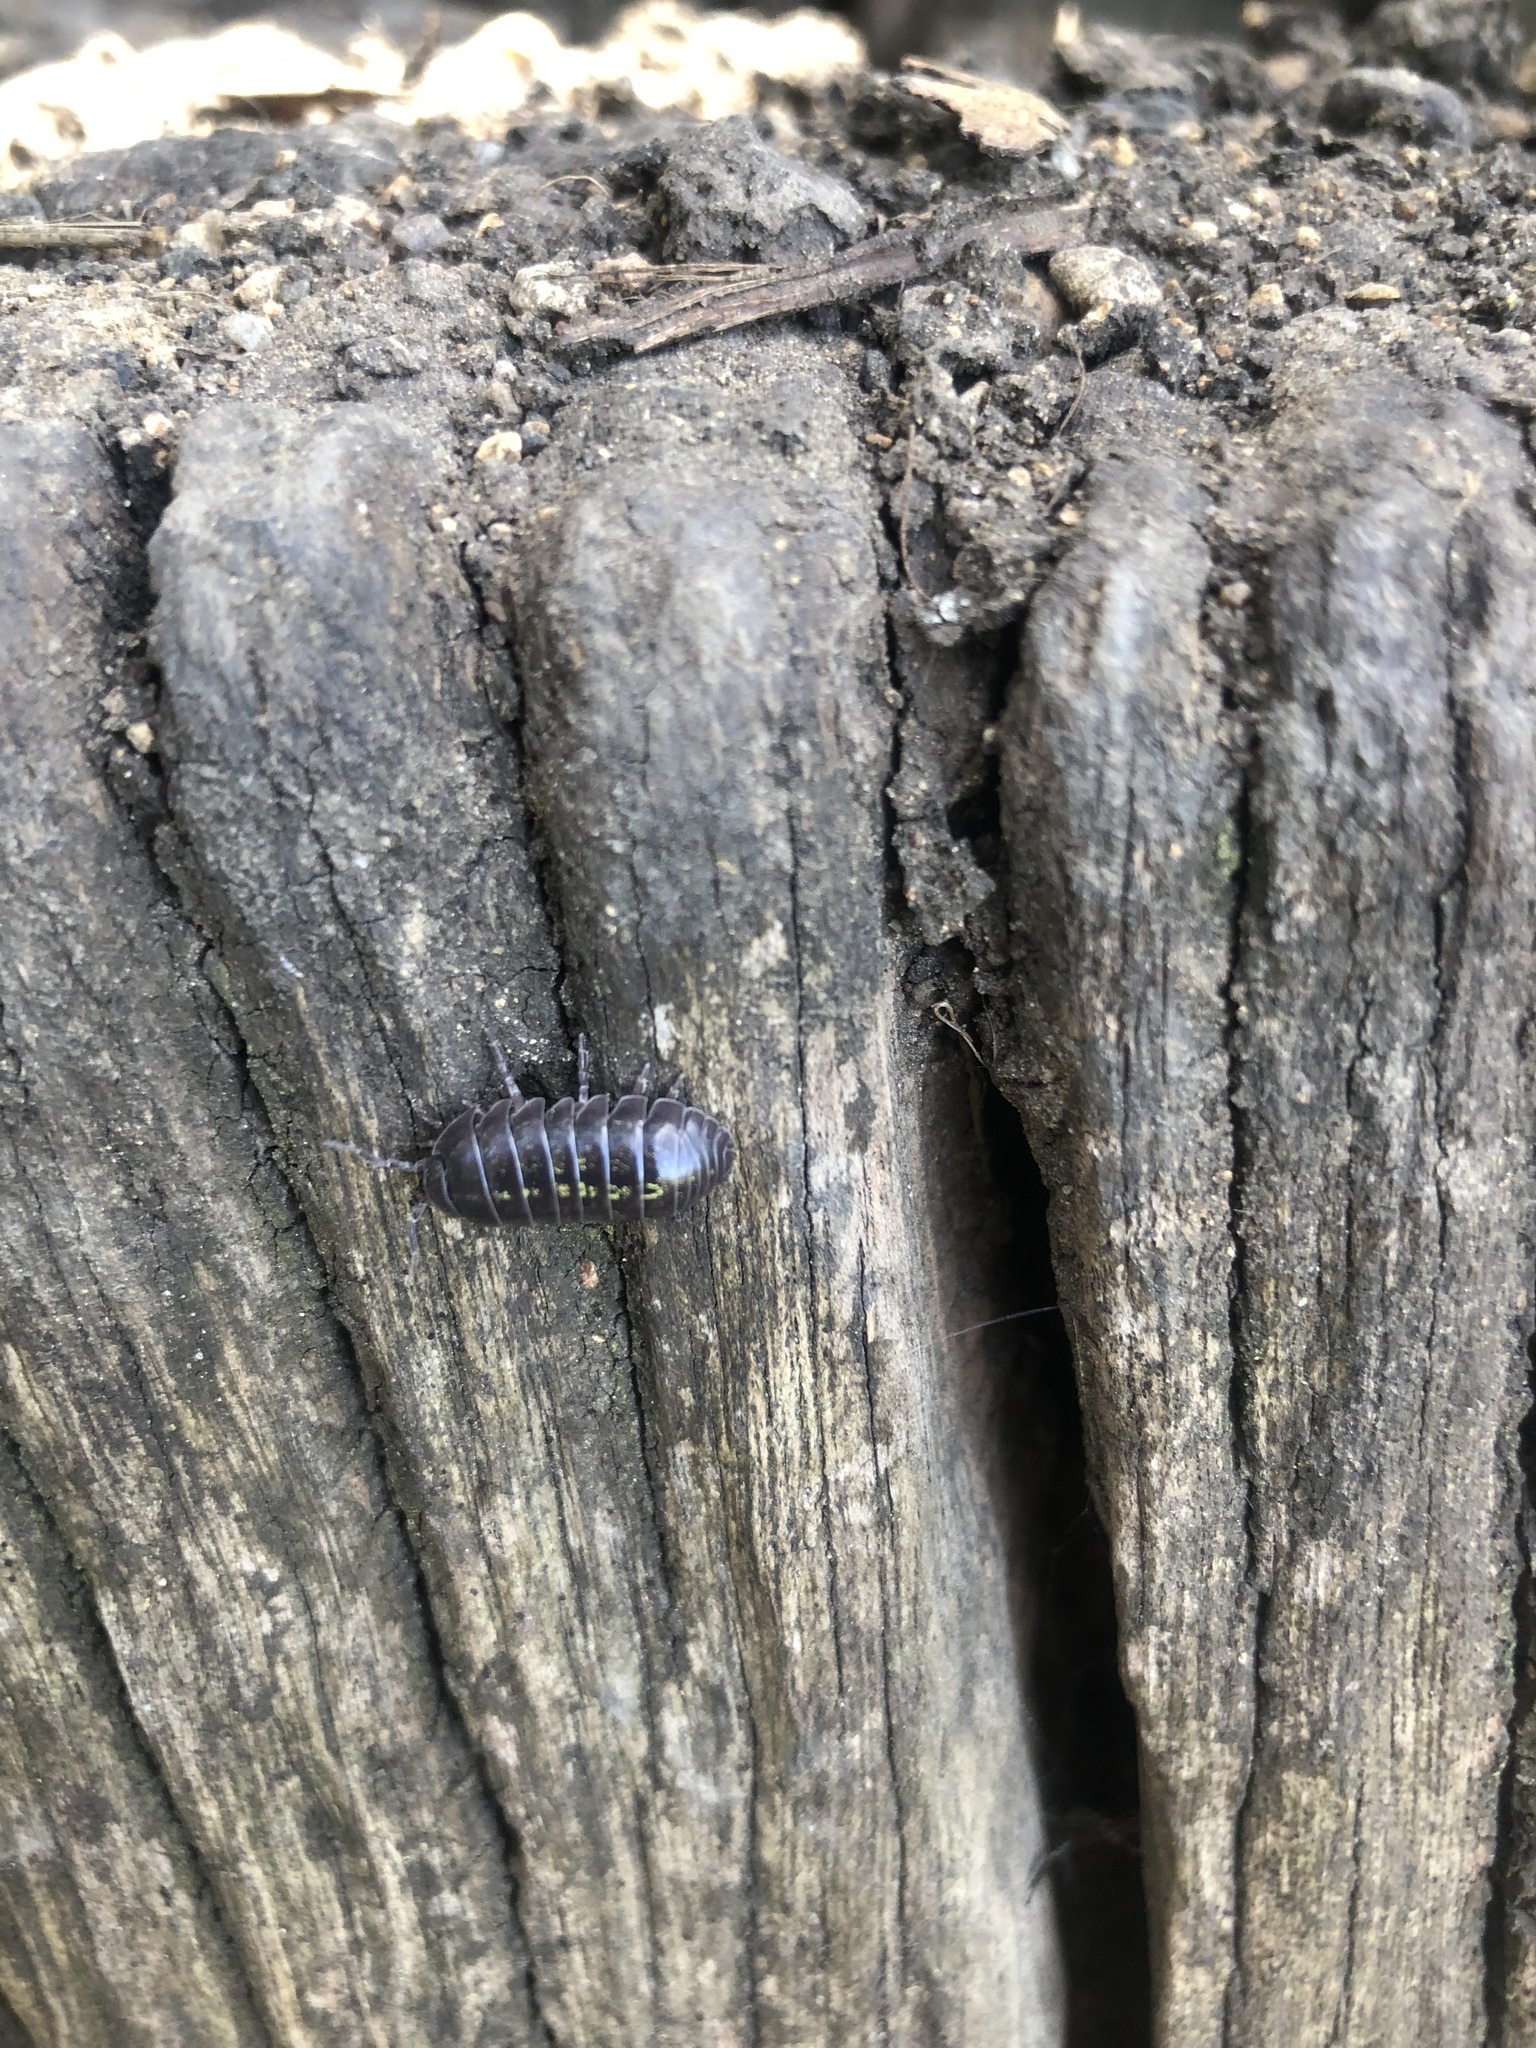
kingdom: Animalia
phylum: Arthropoda
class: Malacostraca
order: Isopoda
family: Armadillidiidae
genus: Armadillidium
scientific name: Armadillidium vulgare
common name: Common pill woodlouse
